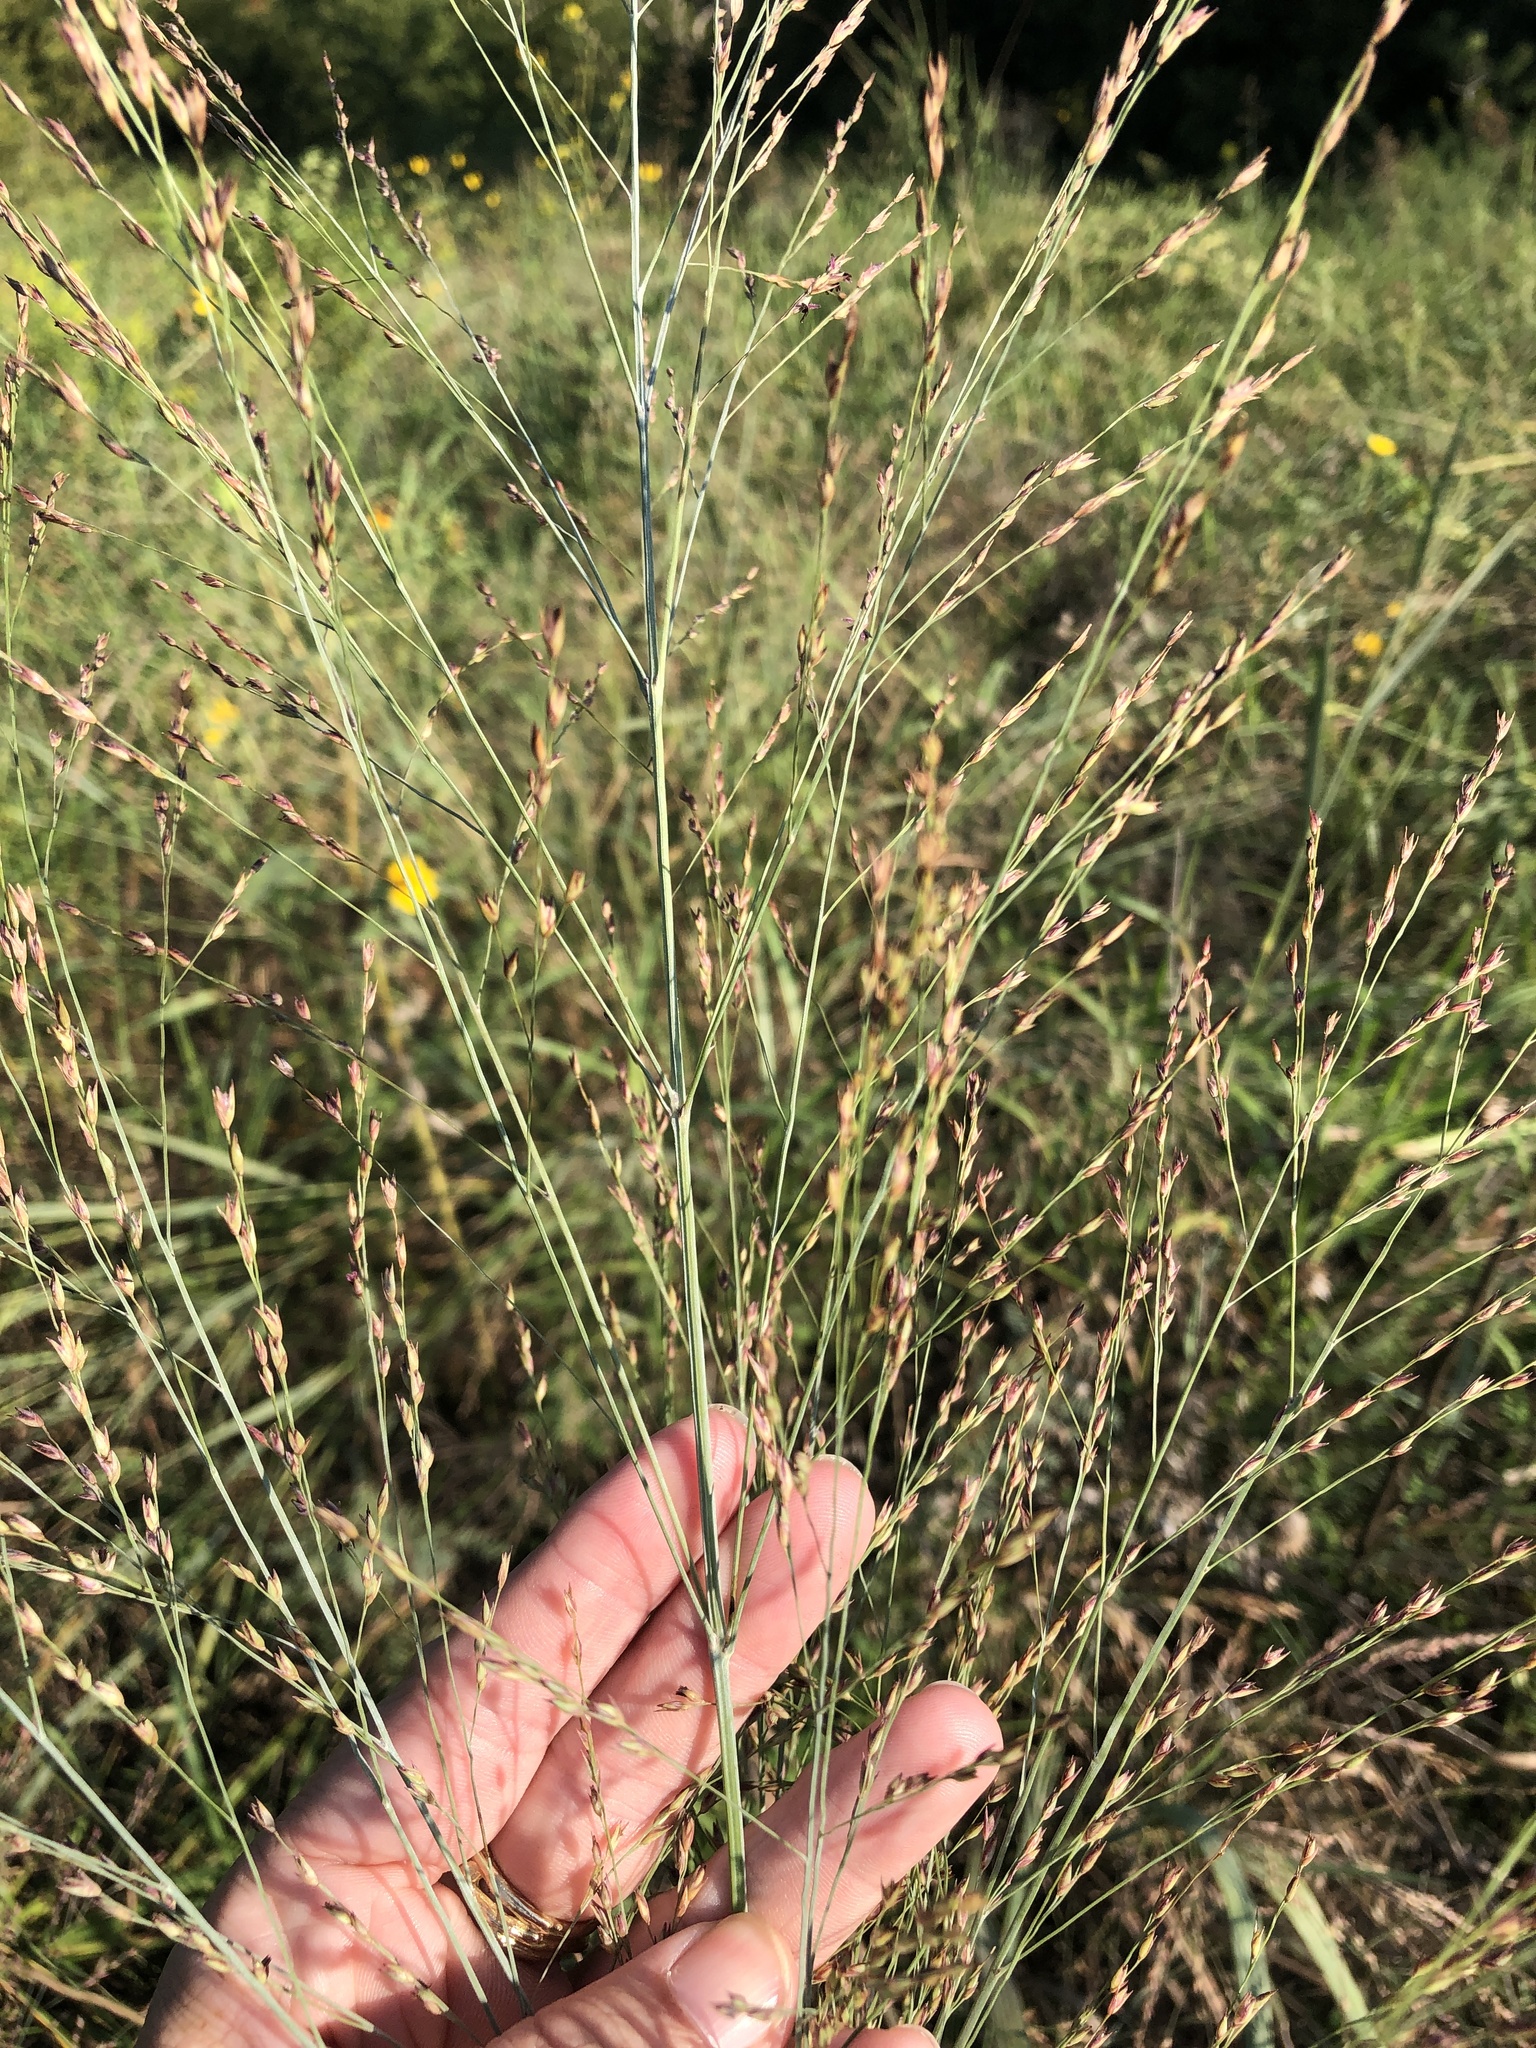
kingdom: Plantae
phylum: Tracheophyta
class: Liliopsida
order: Poales
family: Poaceae
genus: Panicum
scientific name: Panicum virgatum
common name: Switchgrass
